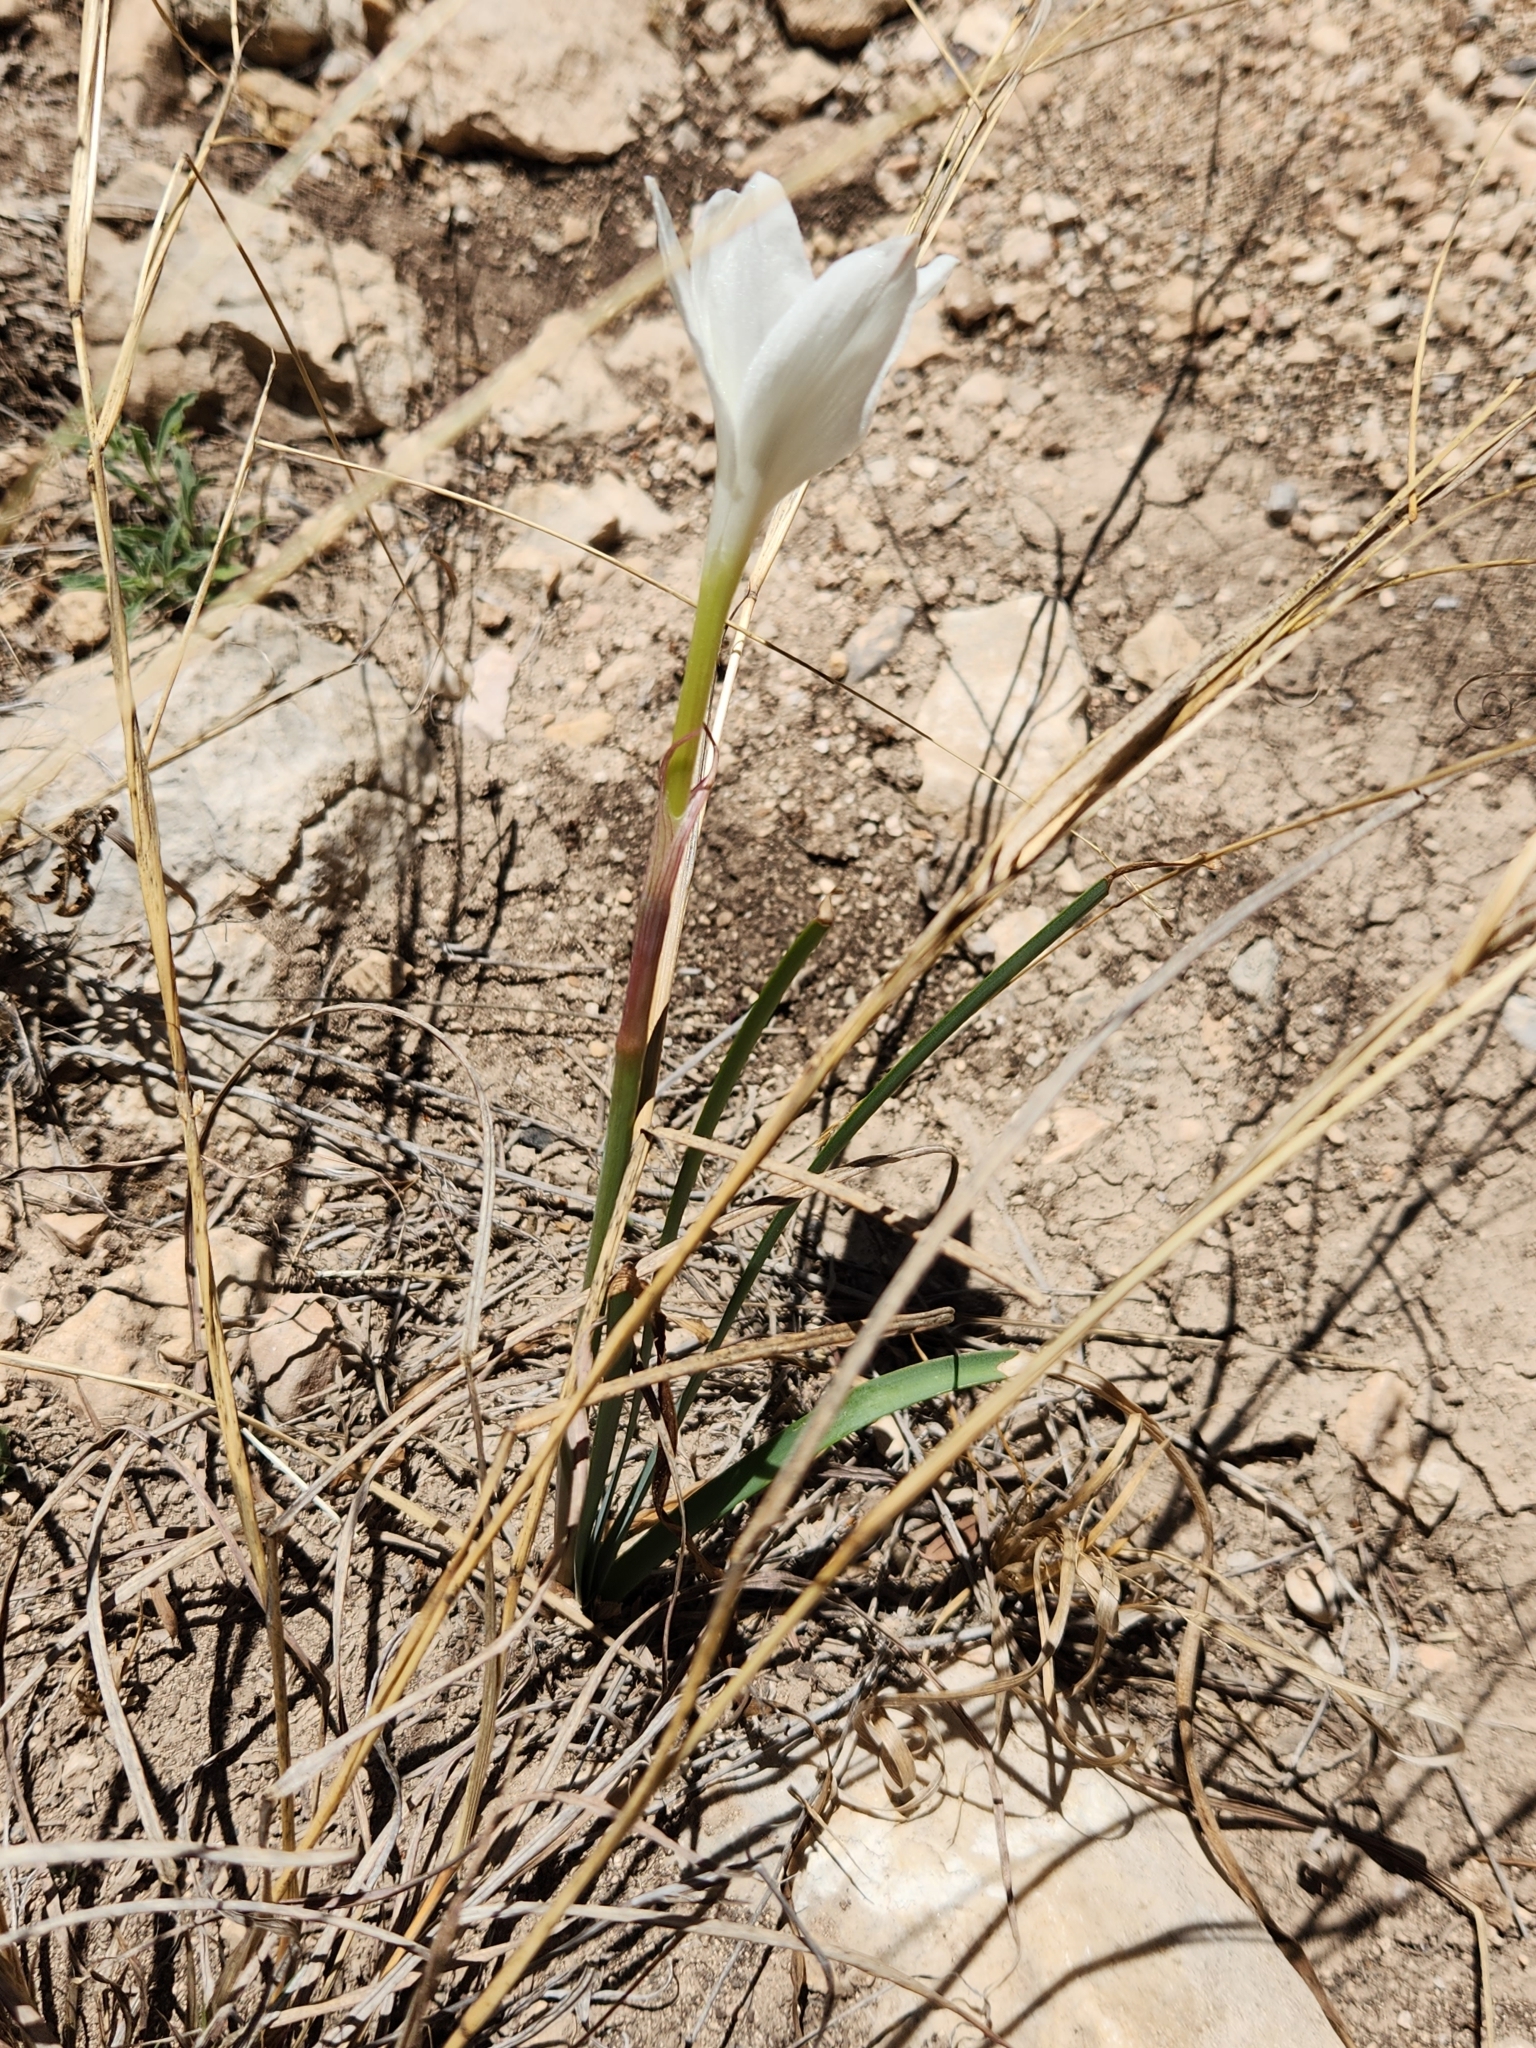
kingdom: Plantae
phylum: Tracheophyta
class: Liliopsida
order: Asparagales
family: Amaryllidaceae
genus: Zephyranthes
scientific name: Zephyranthes drummondii
